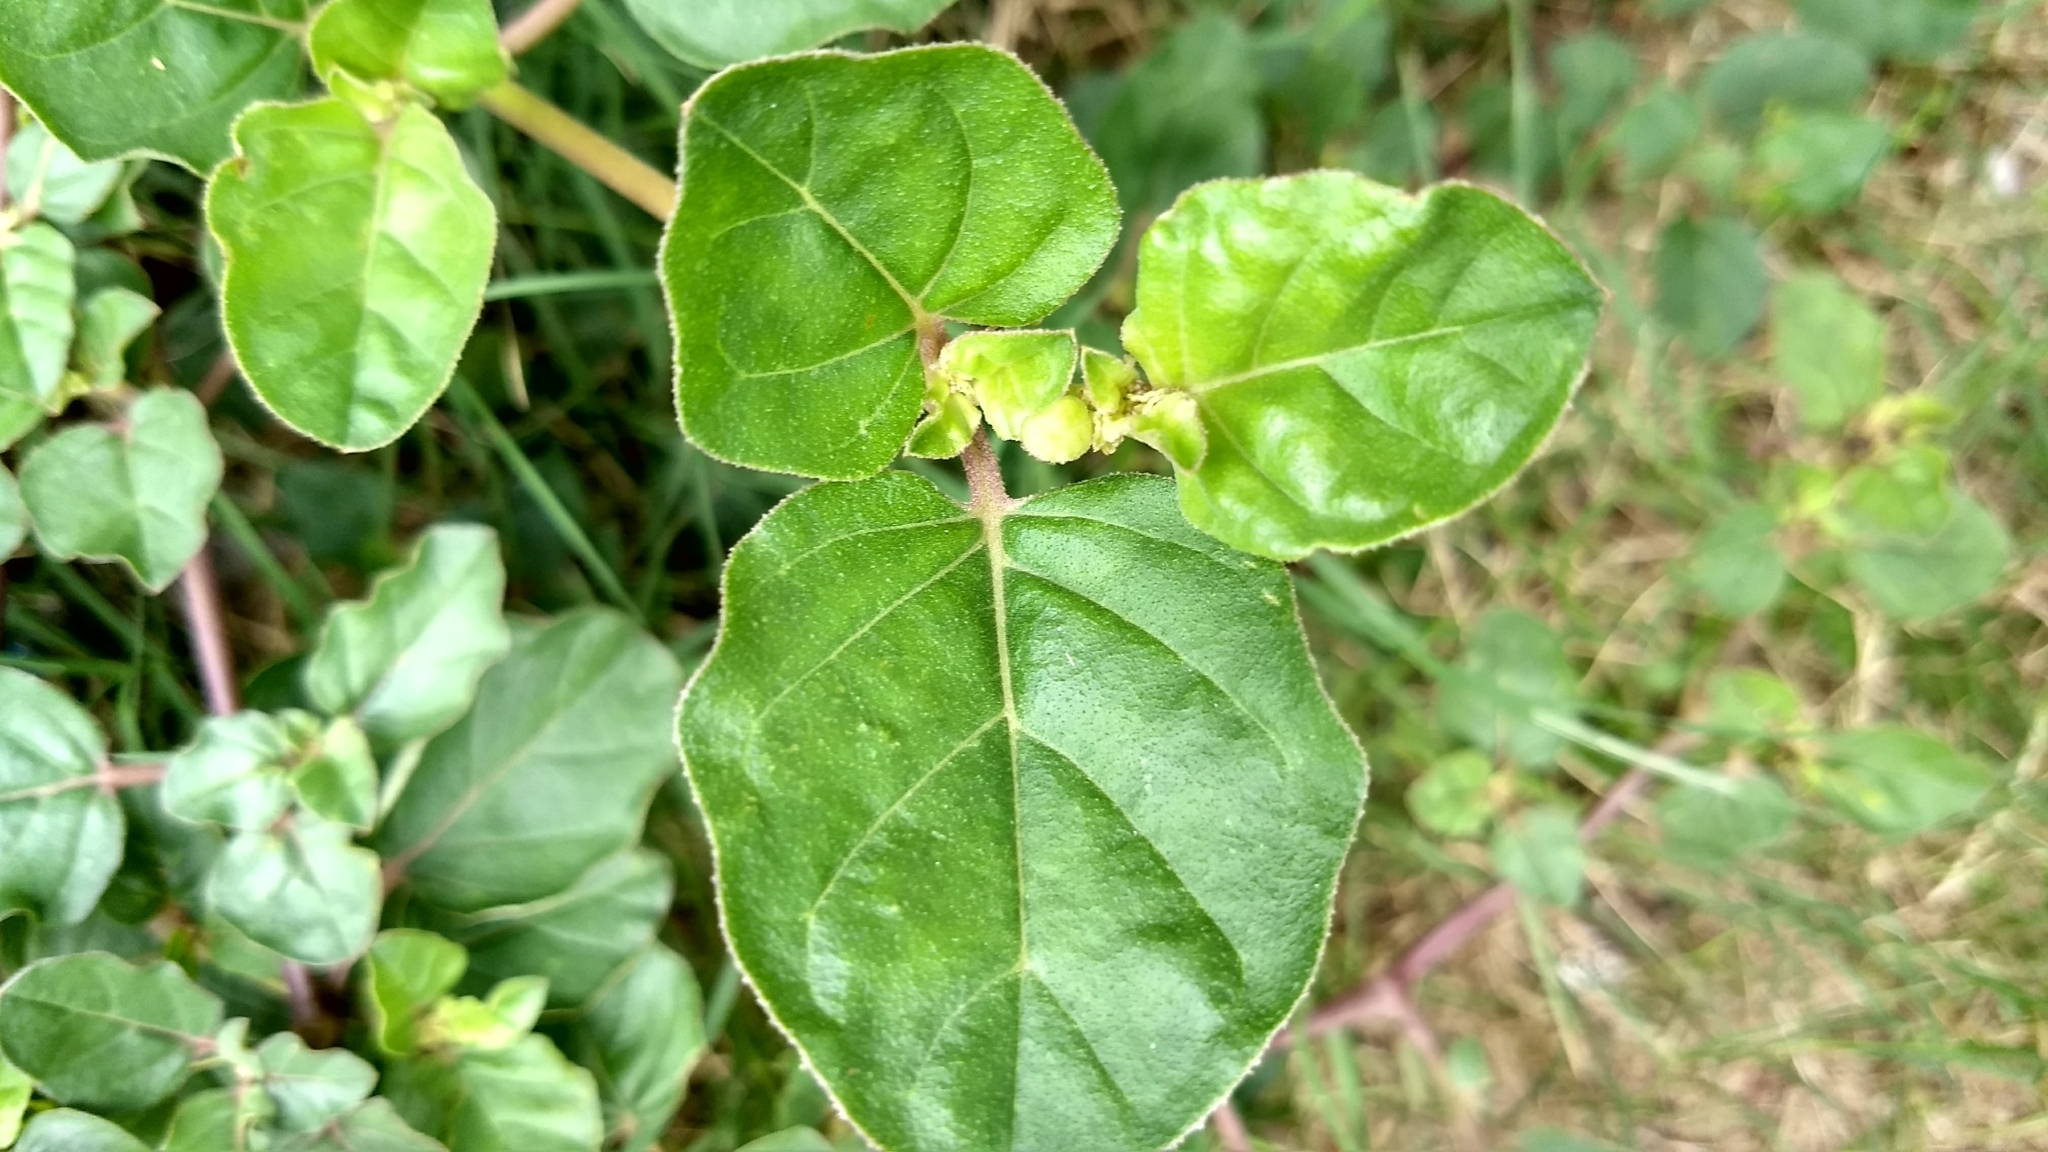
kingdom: Plantae
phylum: Tracheophyta
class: Magnoliopsida
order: Caryophyllales
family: Nyctaginaceae
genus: Boerhavia
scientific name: Boerhavia diffusa
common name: Red spiderling
